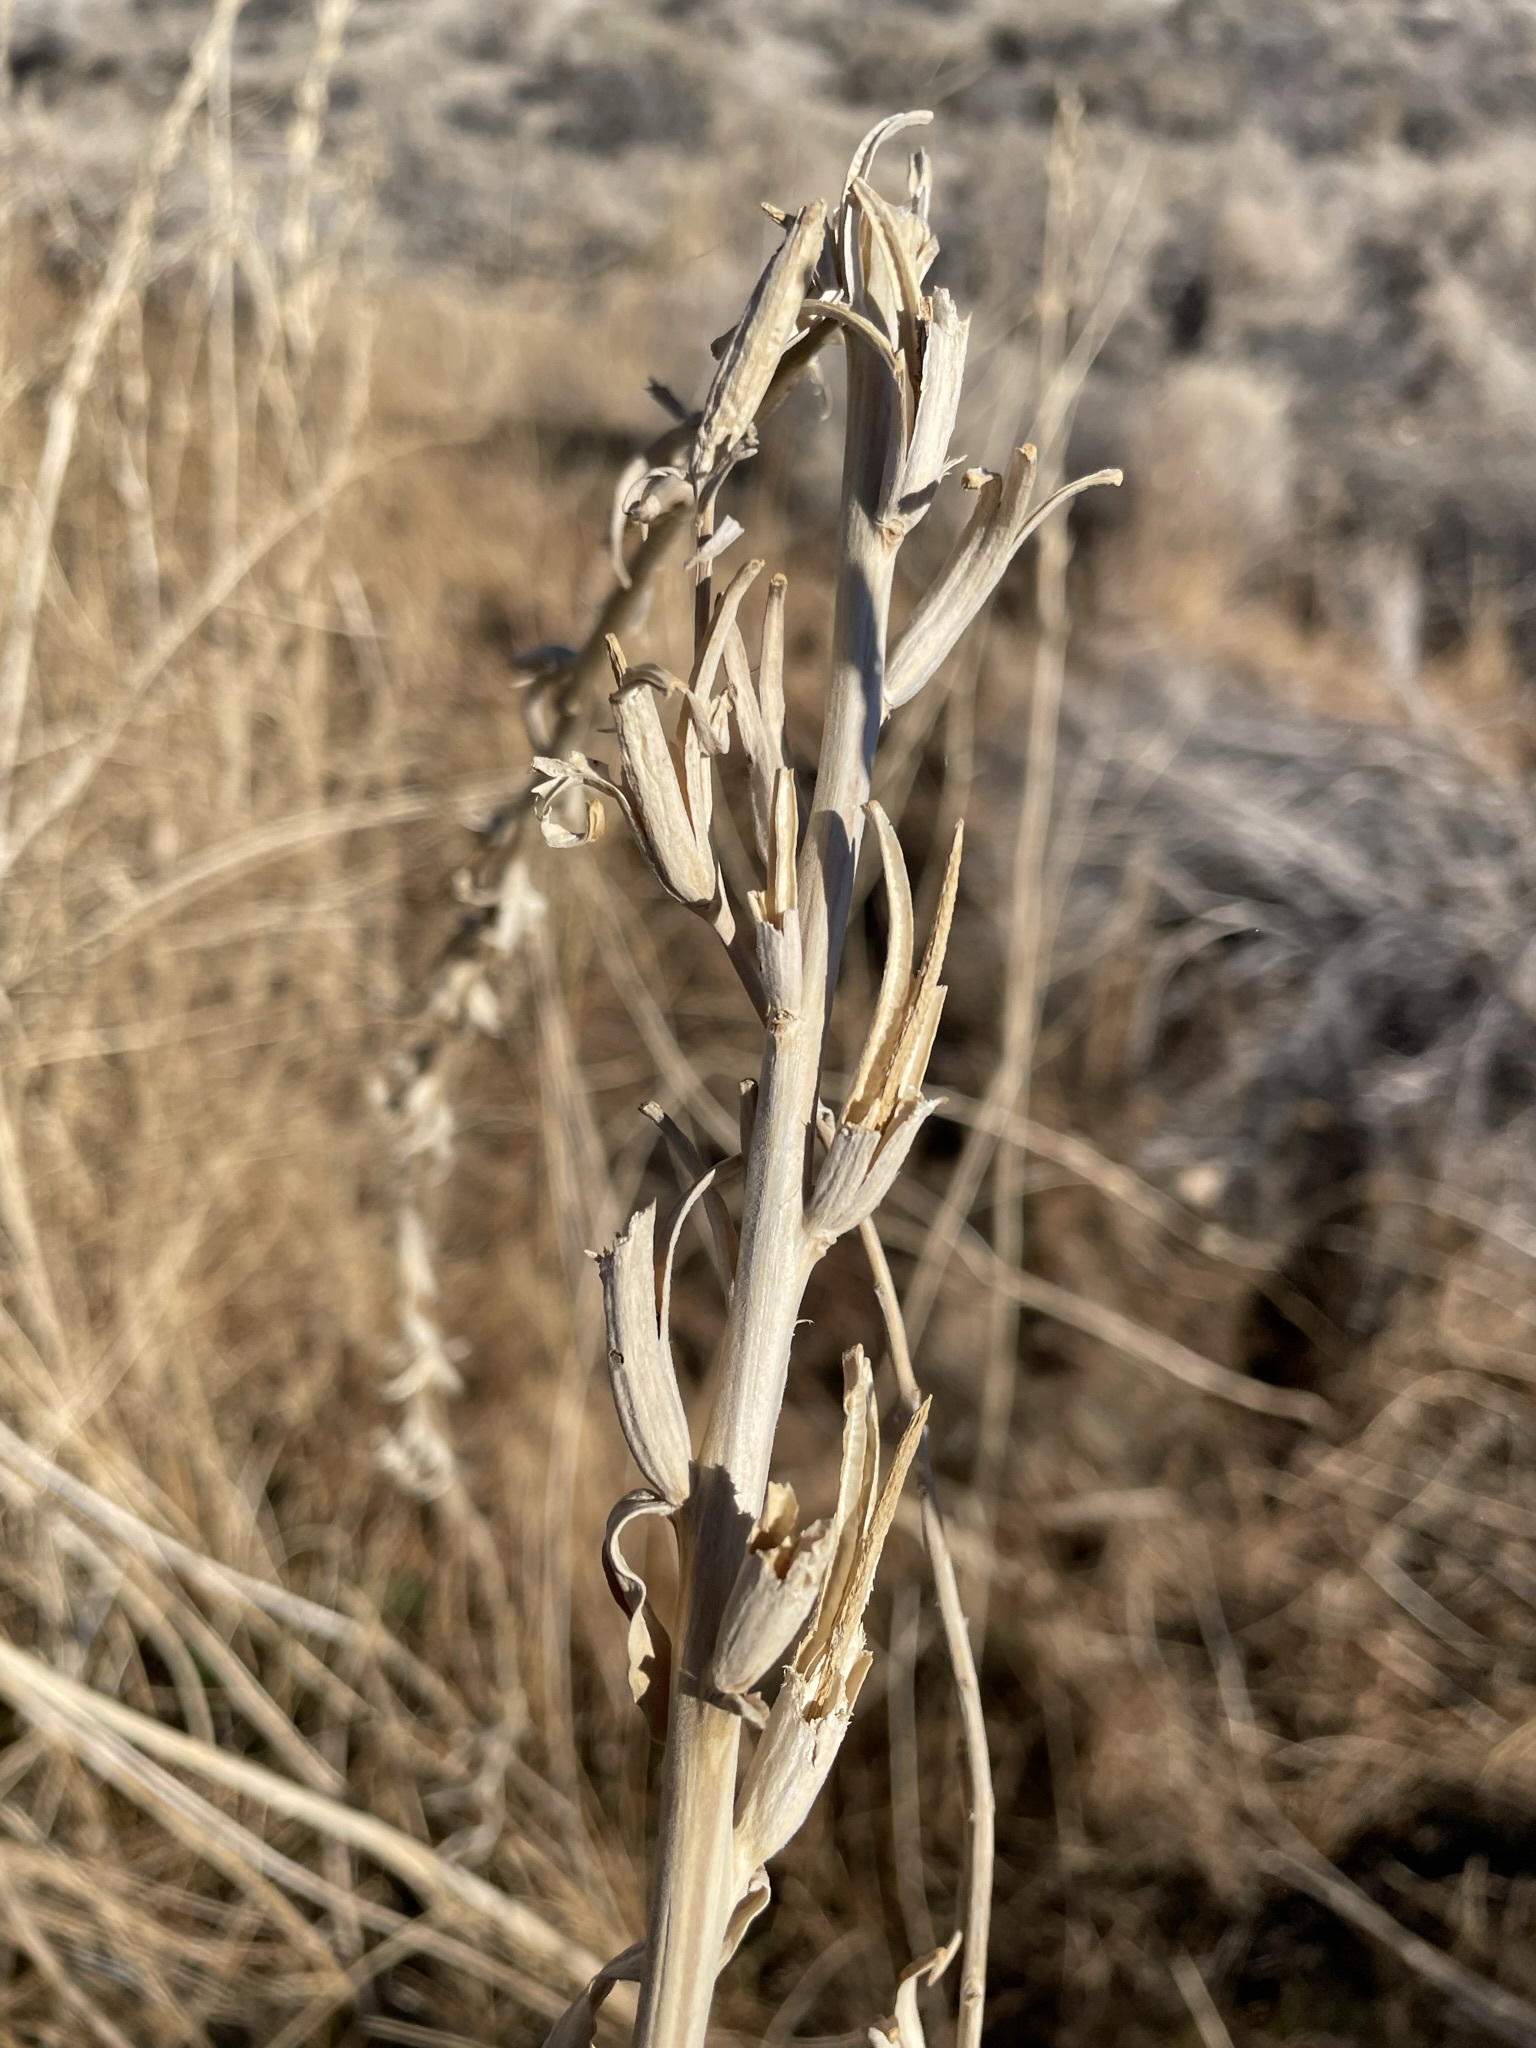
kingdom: Plantae
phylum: Tracheophyta
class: Magnoliopsida
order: Myrtales
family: Onagraceae
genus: Oenothera
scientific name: Oenothera elata
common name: Hooker's evening-primrose
